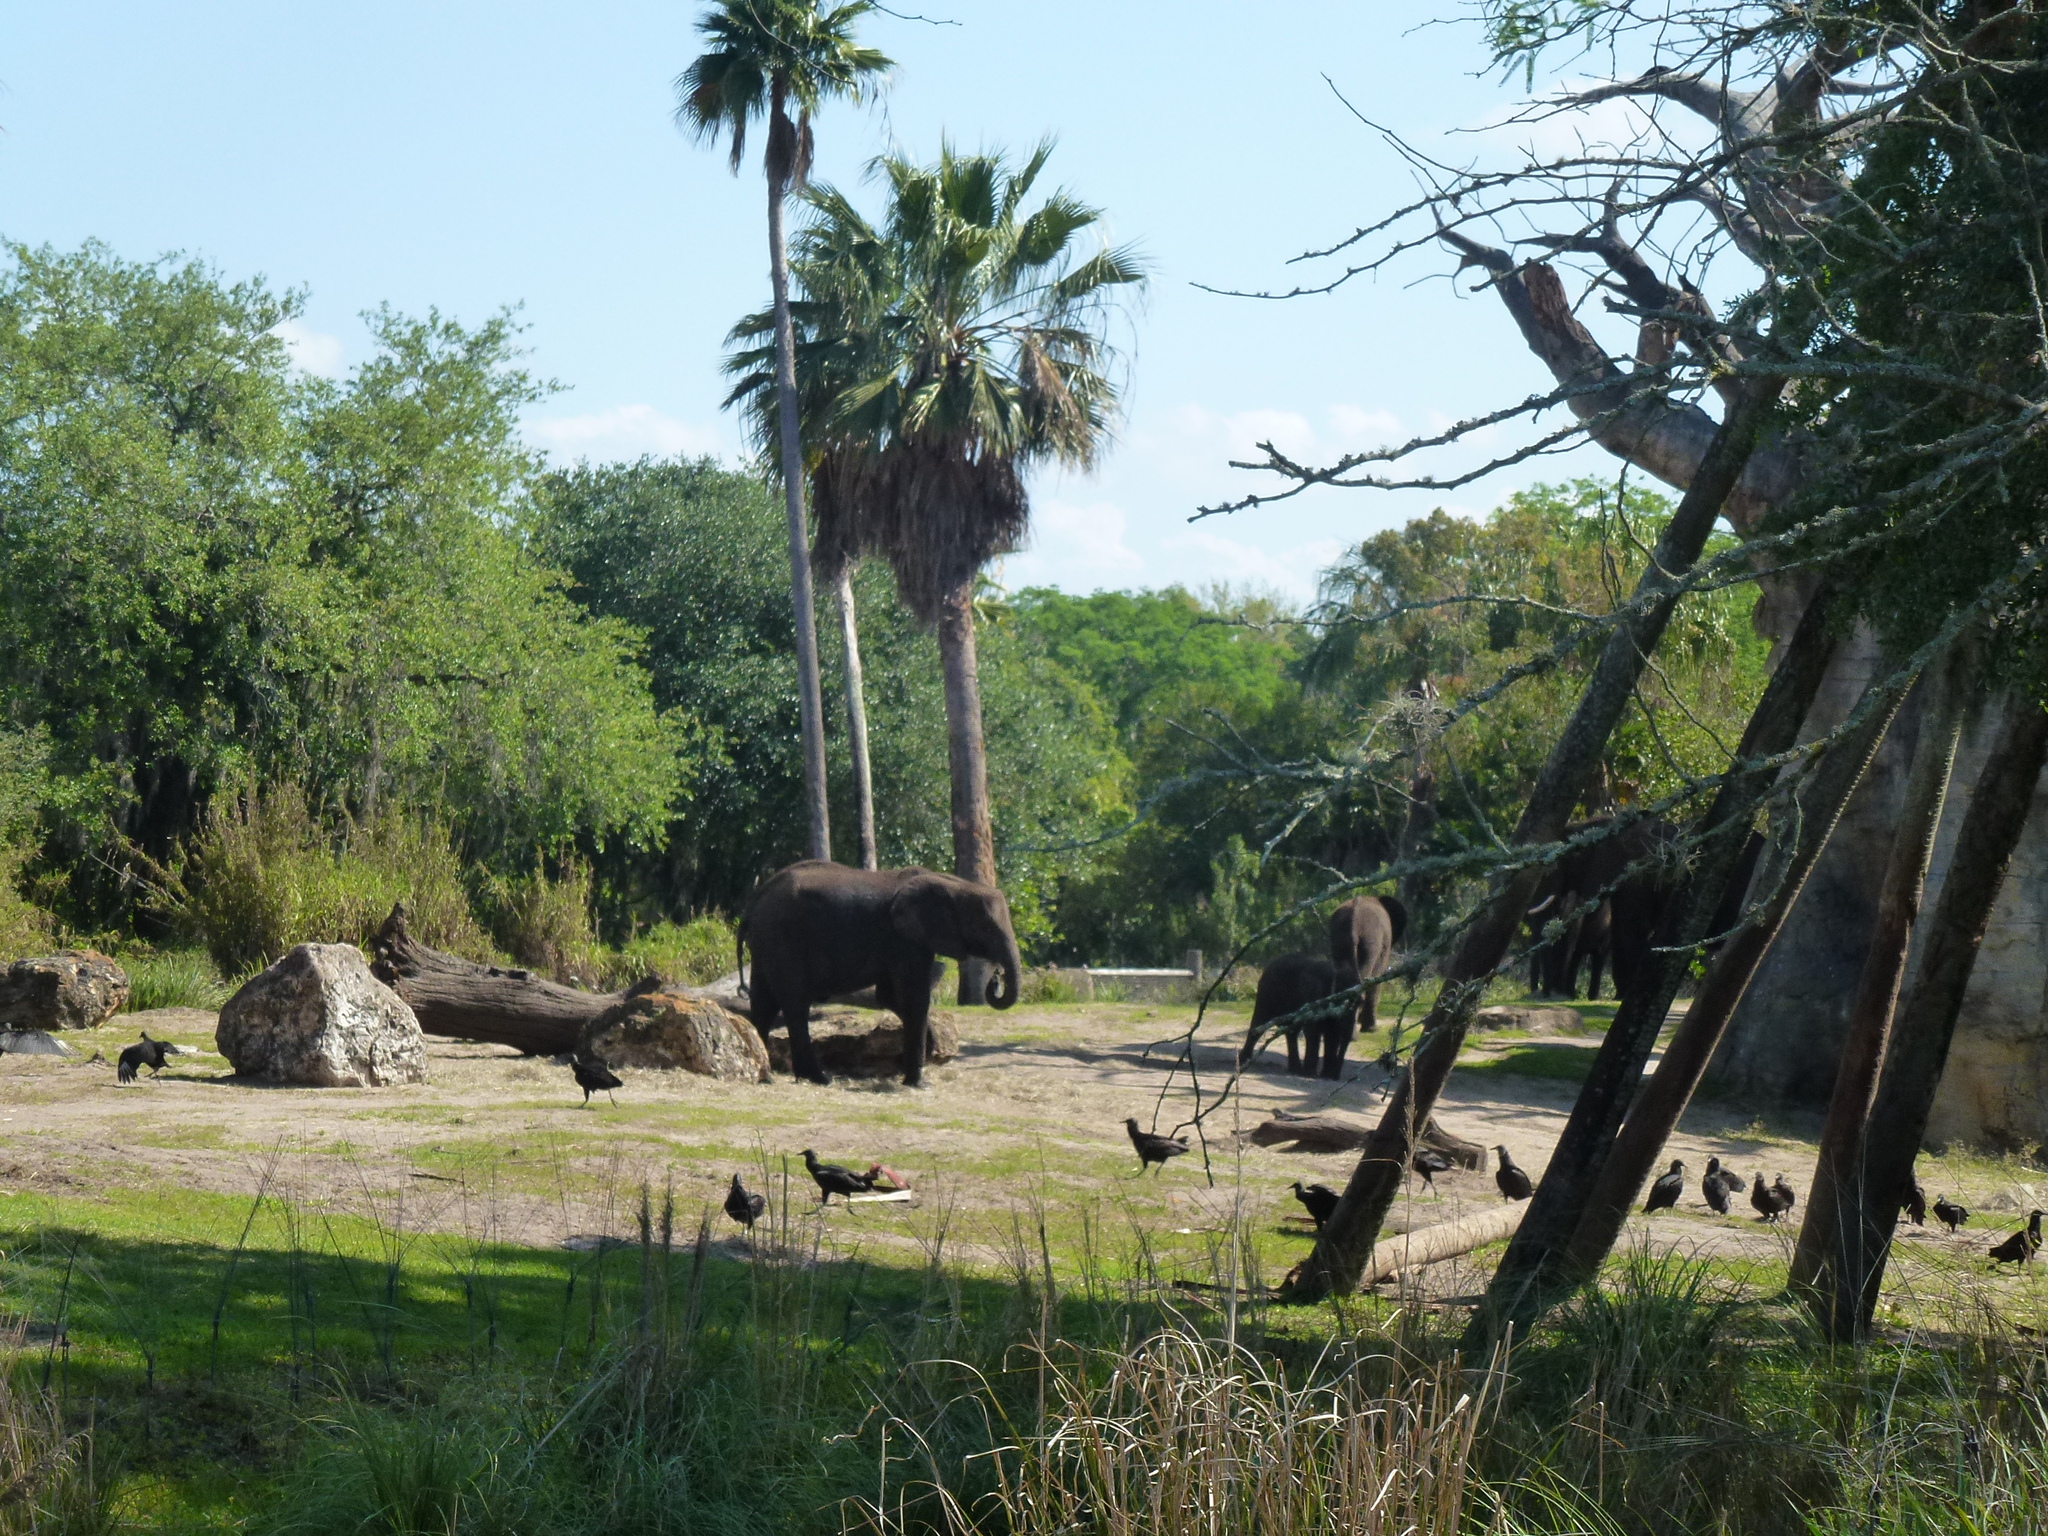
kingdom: Animalia
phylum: Chordata
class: Aves
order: Accipitriformes
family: Cathartidae
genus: Coragyps
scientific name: Coragyps atratus
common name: Black vulture
